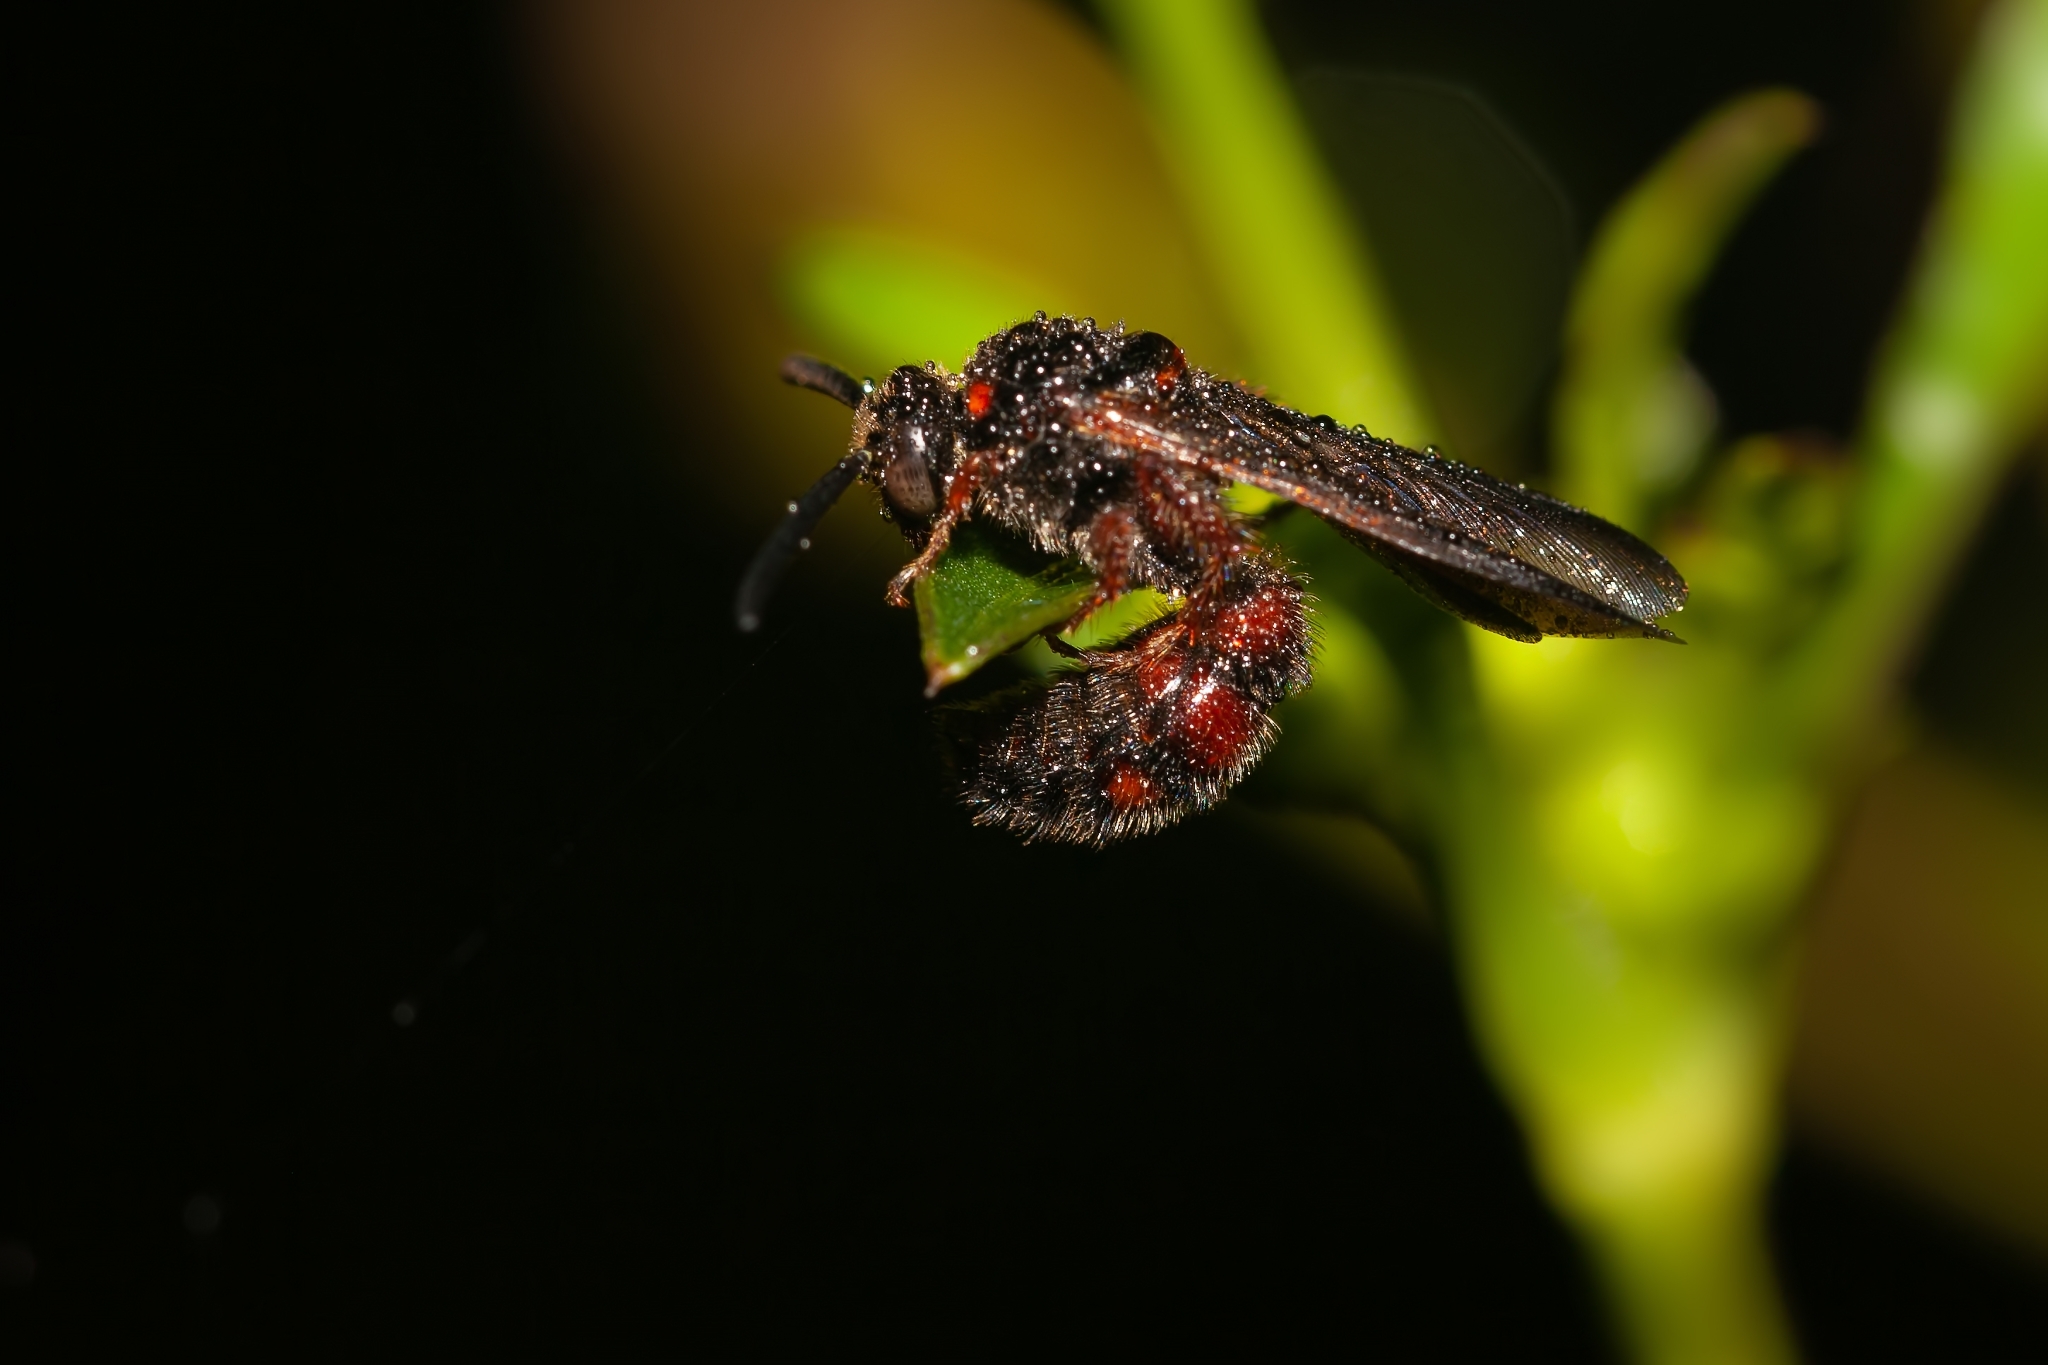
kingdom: Animalia
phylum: Arthropoda
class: Insecta
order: Hymenoptera
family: Scoliidae
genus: Scolia
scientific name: Scolia nobilitata
